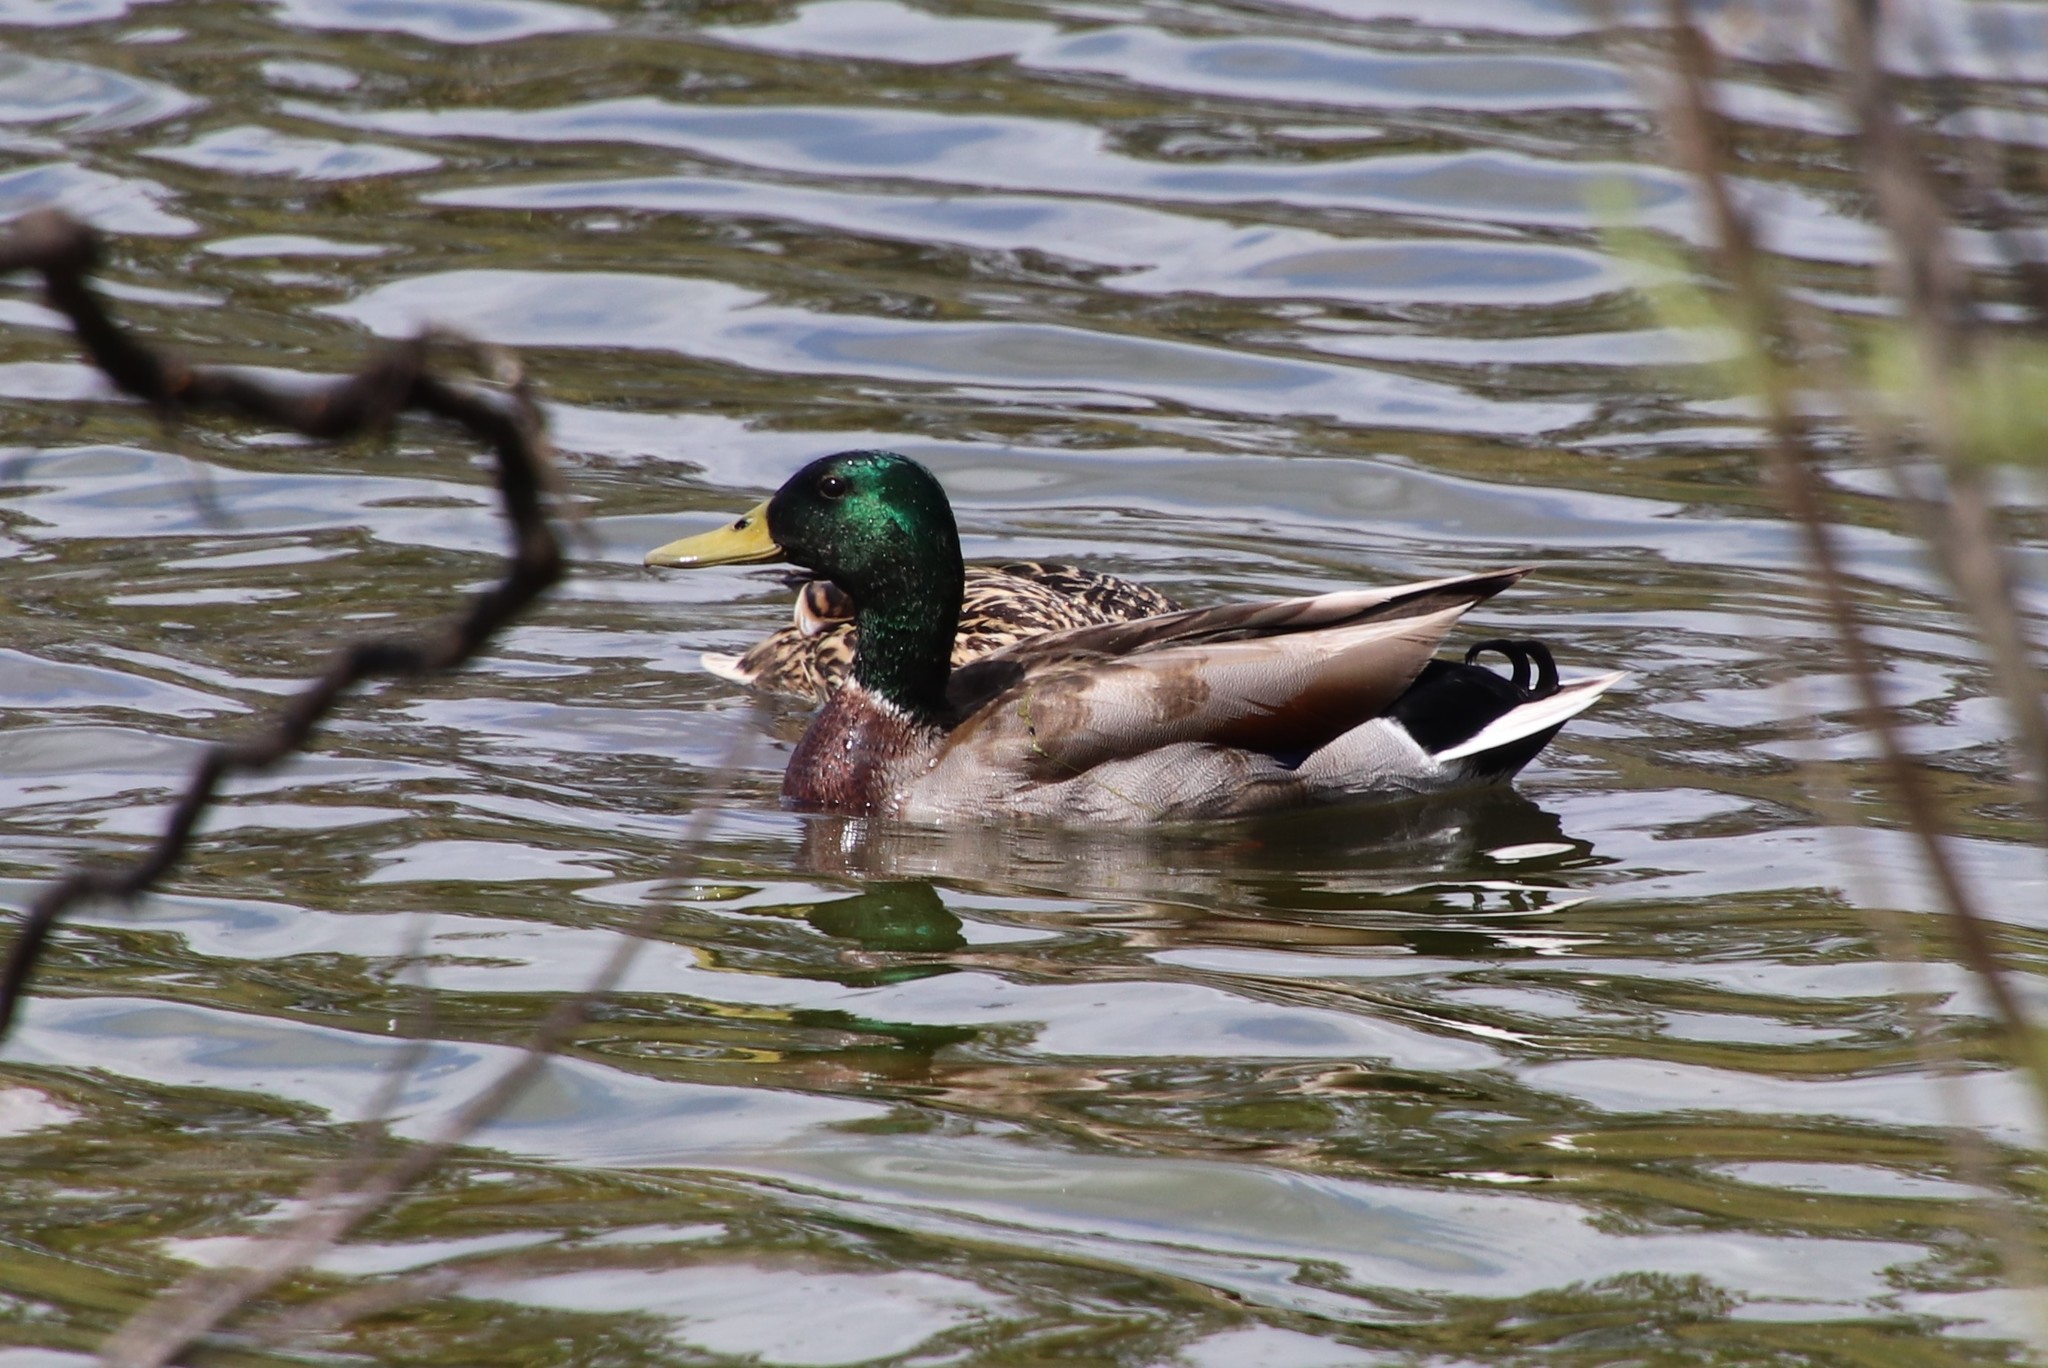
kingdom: Animalia
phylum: Chordata
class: Aves
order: Anseriformes
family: Anatidae
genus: Anas
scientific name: Anas platyrhynchos
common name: Mallard
